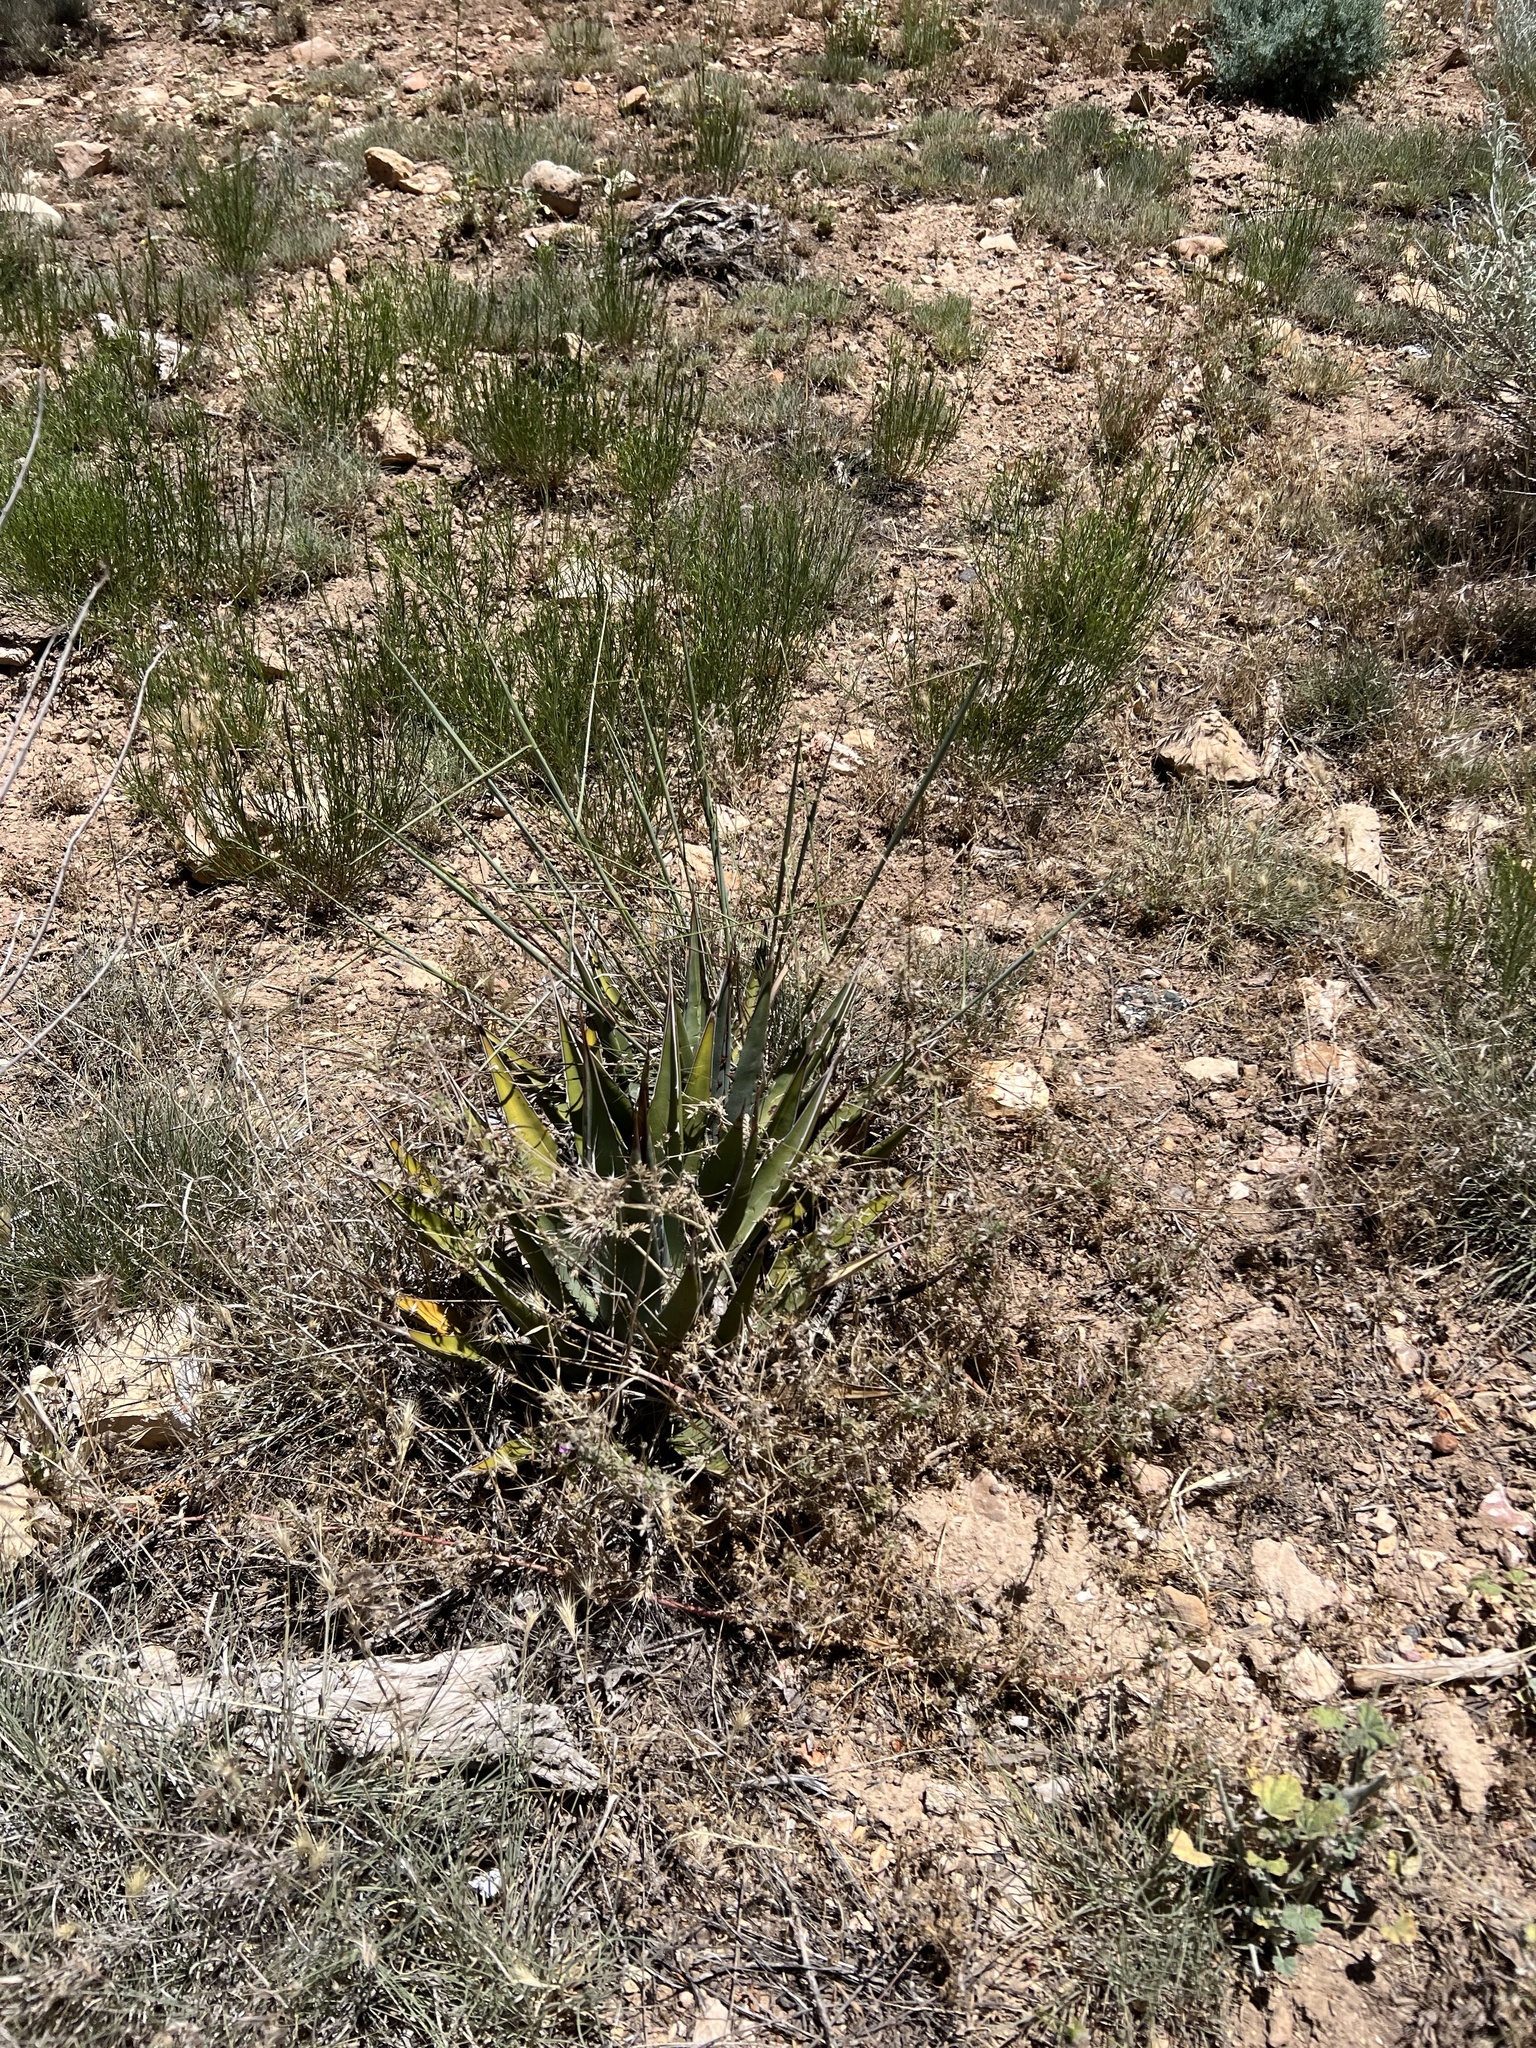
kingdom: Plantae
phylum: Tracheophyta
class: Liliopsida
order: Asparagales
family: Asparagaceae
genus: Agave
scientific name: Agave utahensis
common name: Utah agave
